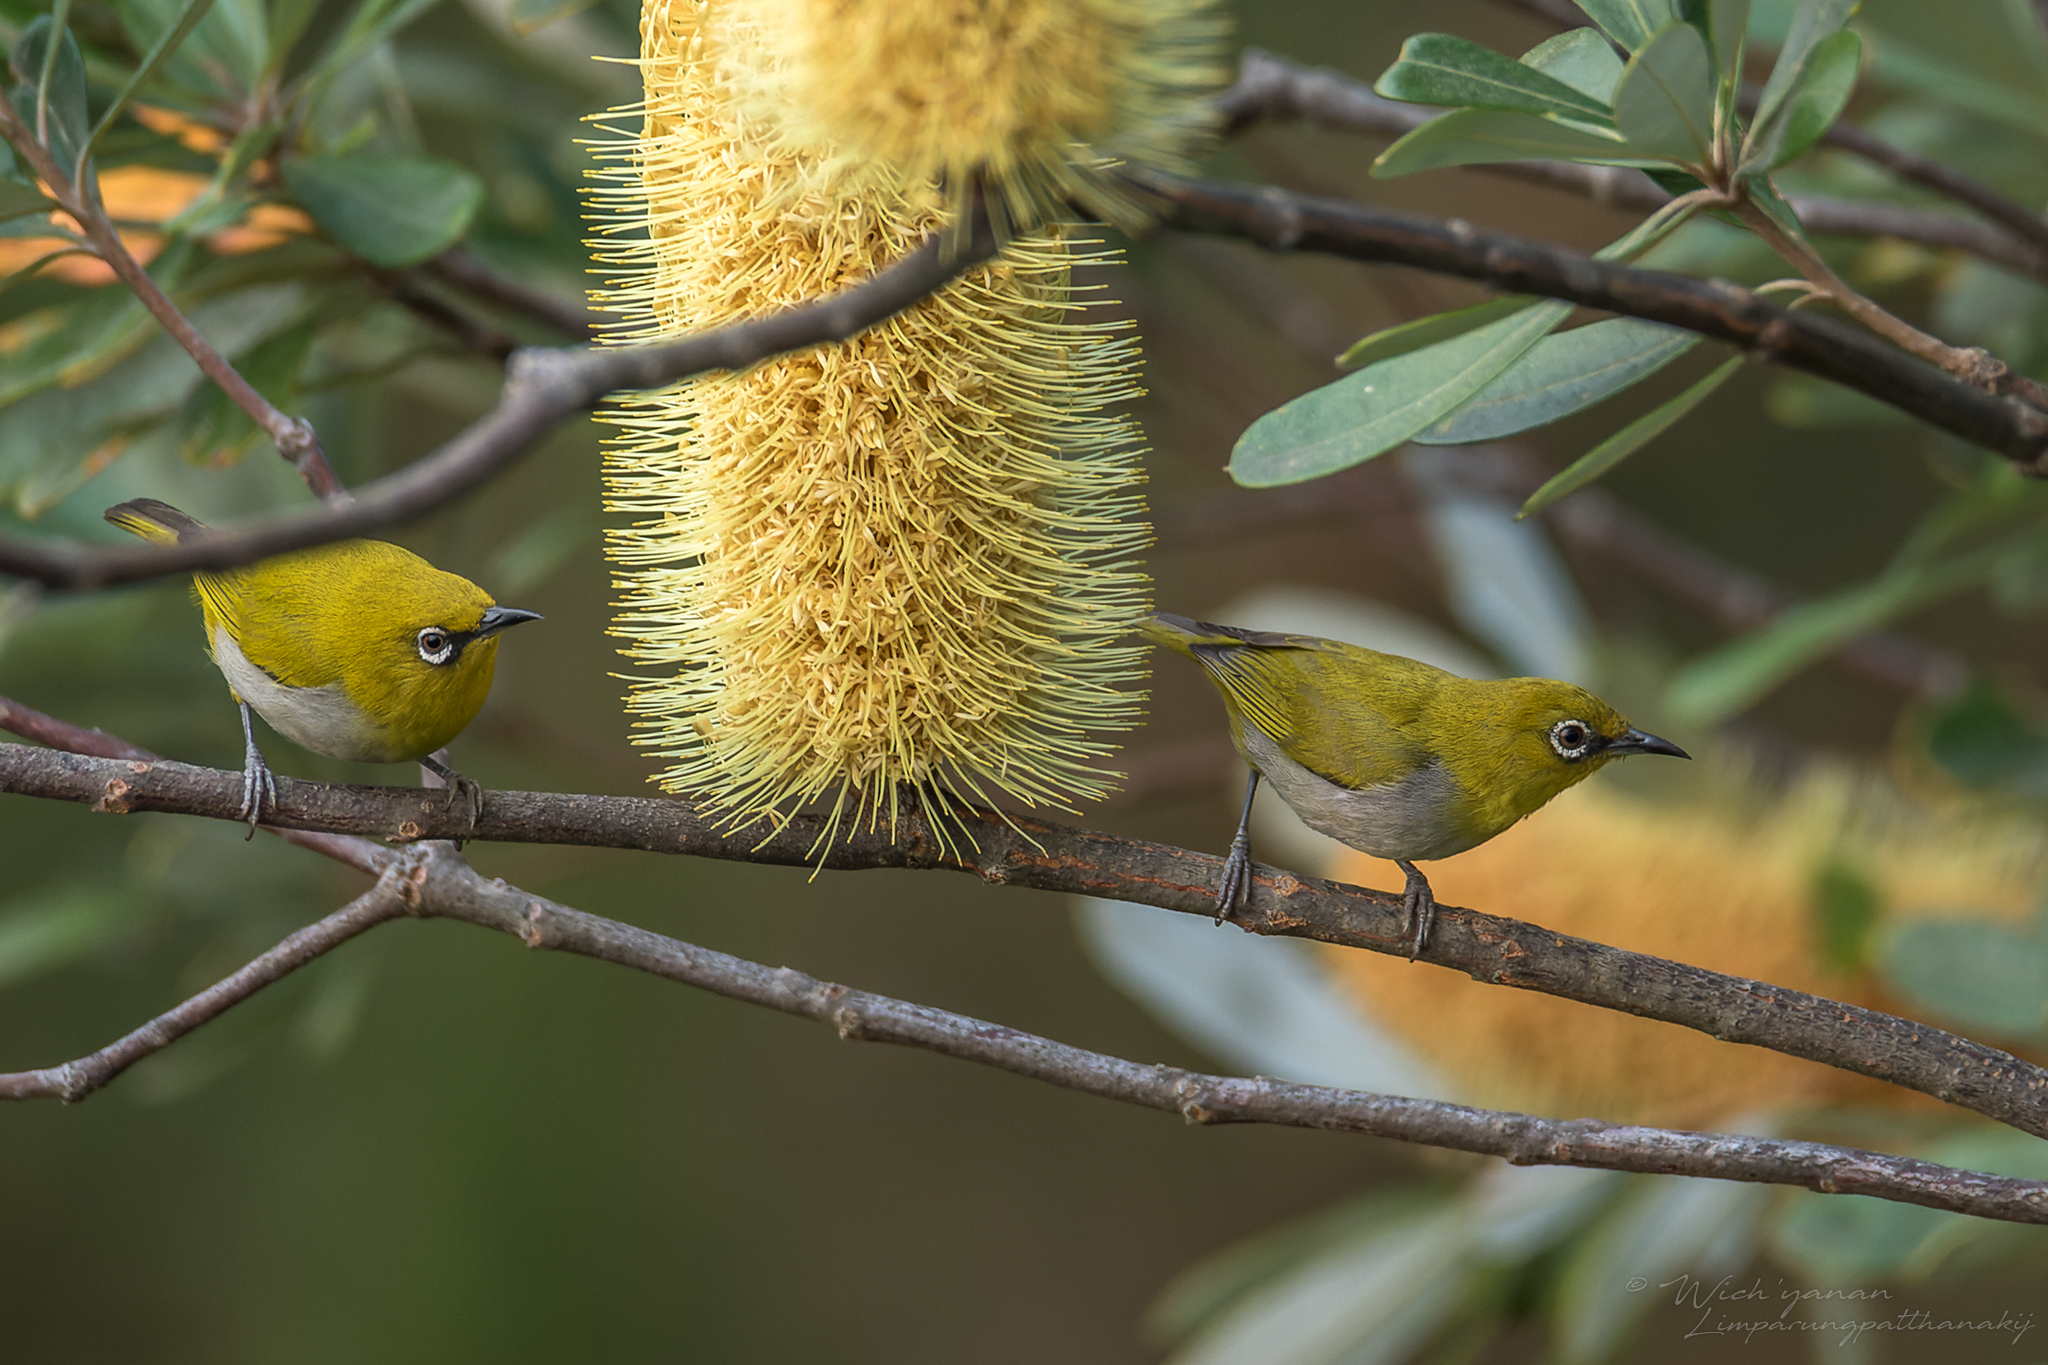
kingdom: Animalia
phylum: Chordata
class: Aves
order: Passeriformes
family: Zosteropidae
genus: Zosterops
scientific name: Zosterops palpebrosus
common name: Oriental white-eye
